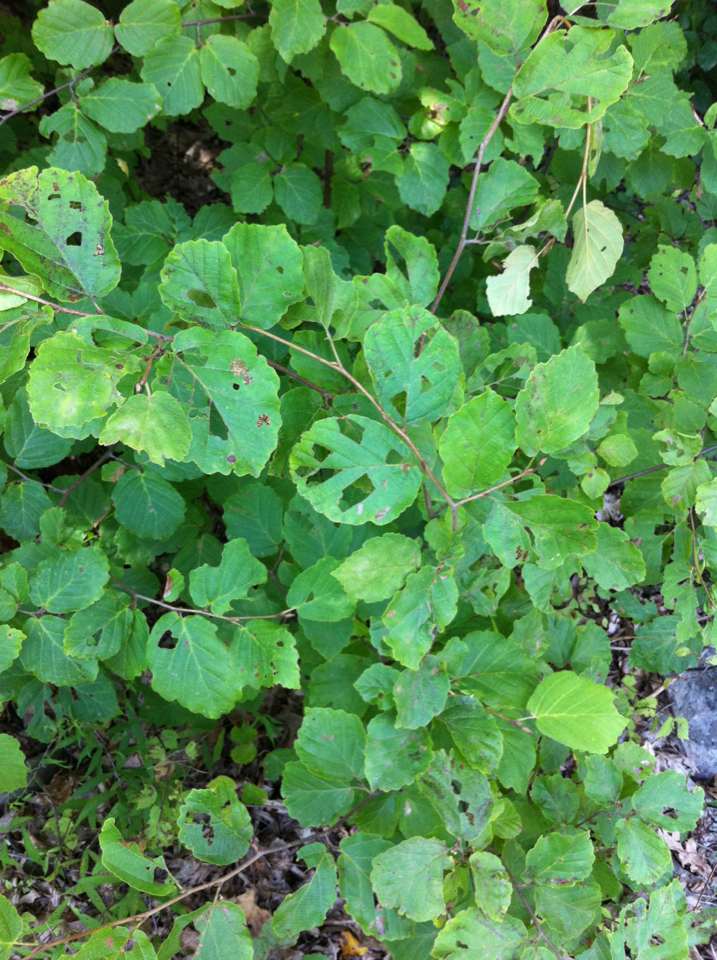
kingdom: Plantae
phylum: Tracheophyta
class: Magnoliopsida
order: Saxifragales
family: Hamamelidaceae
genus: Hamamelis
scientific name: Hamamelis virginiana
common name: Witch-hazel
